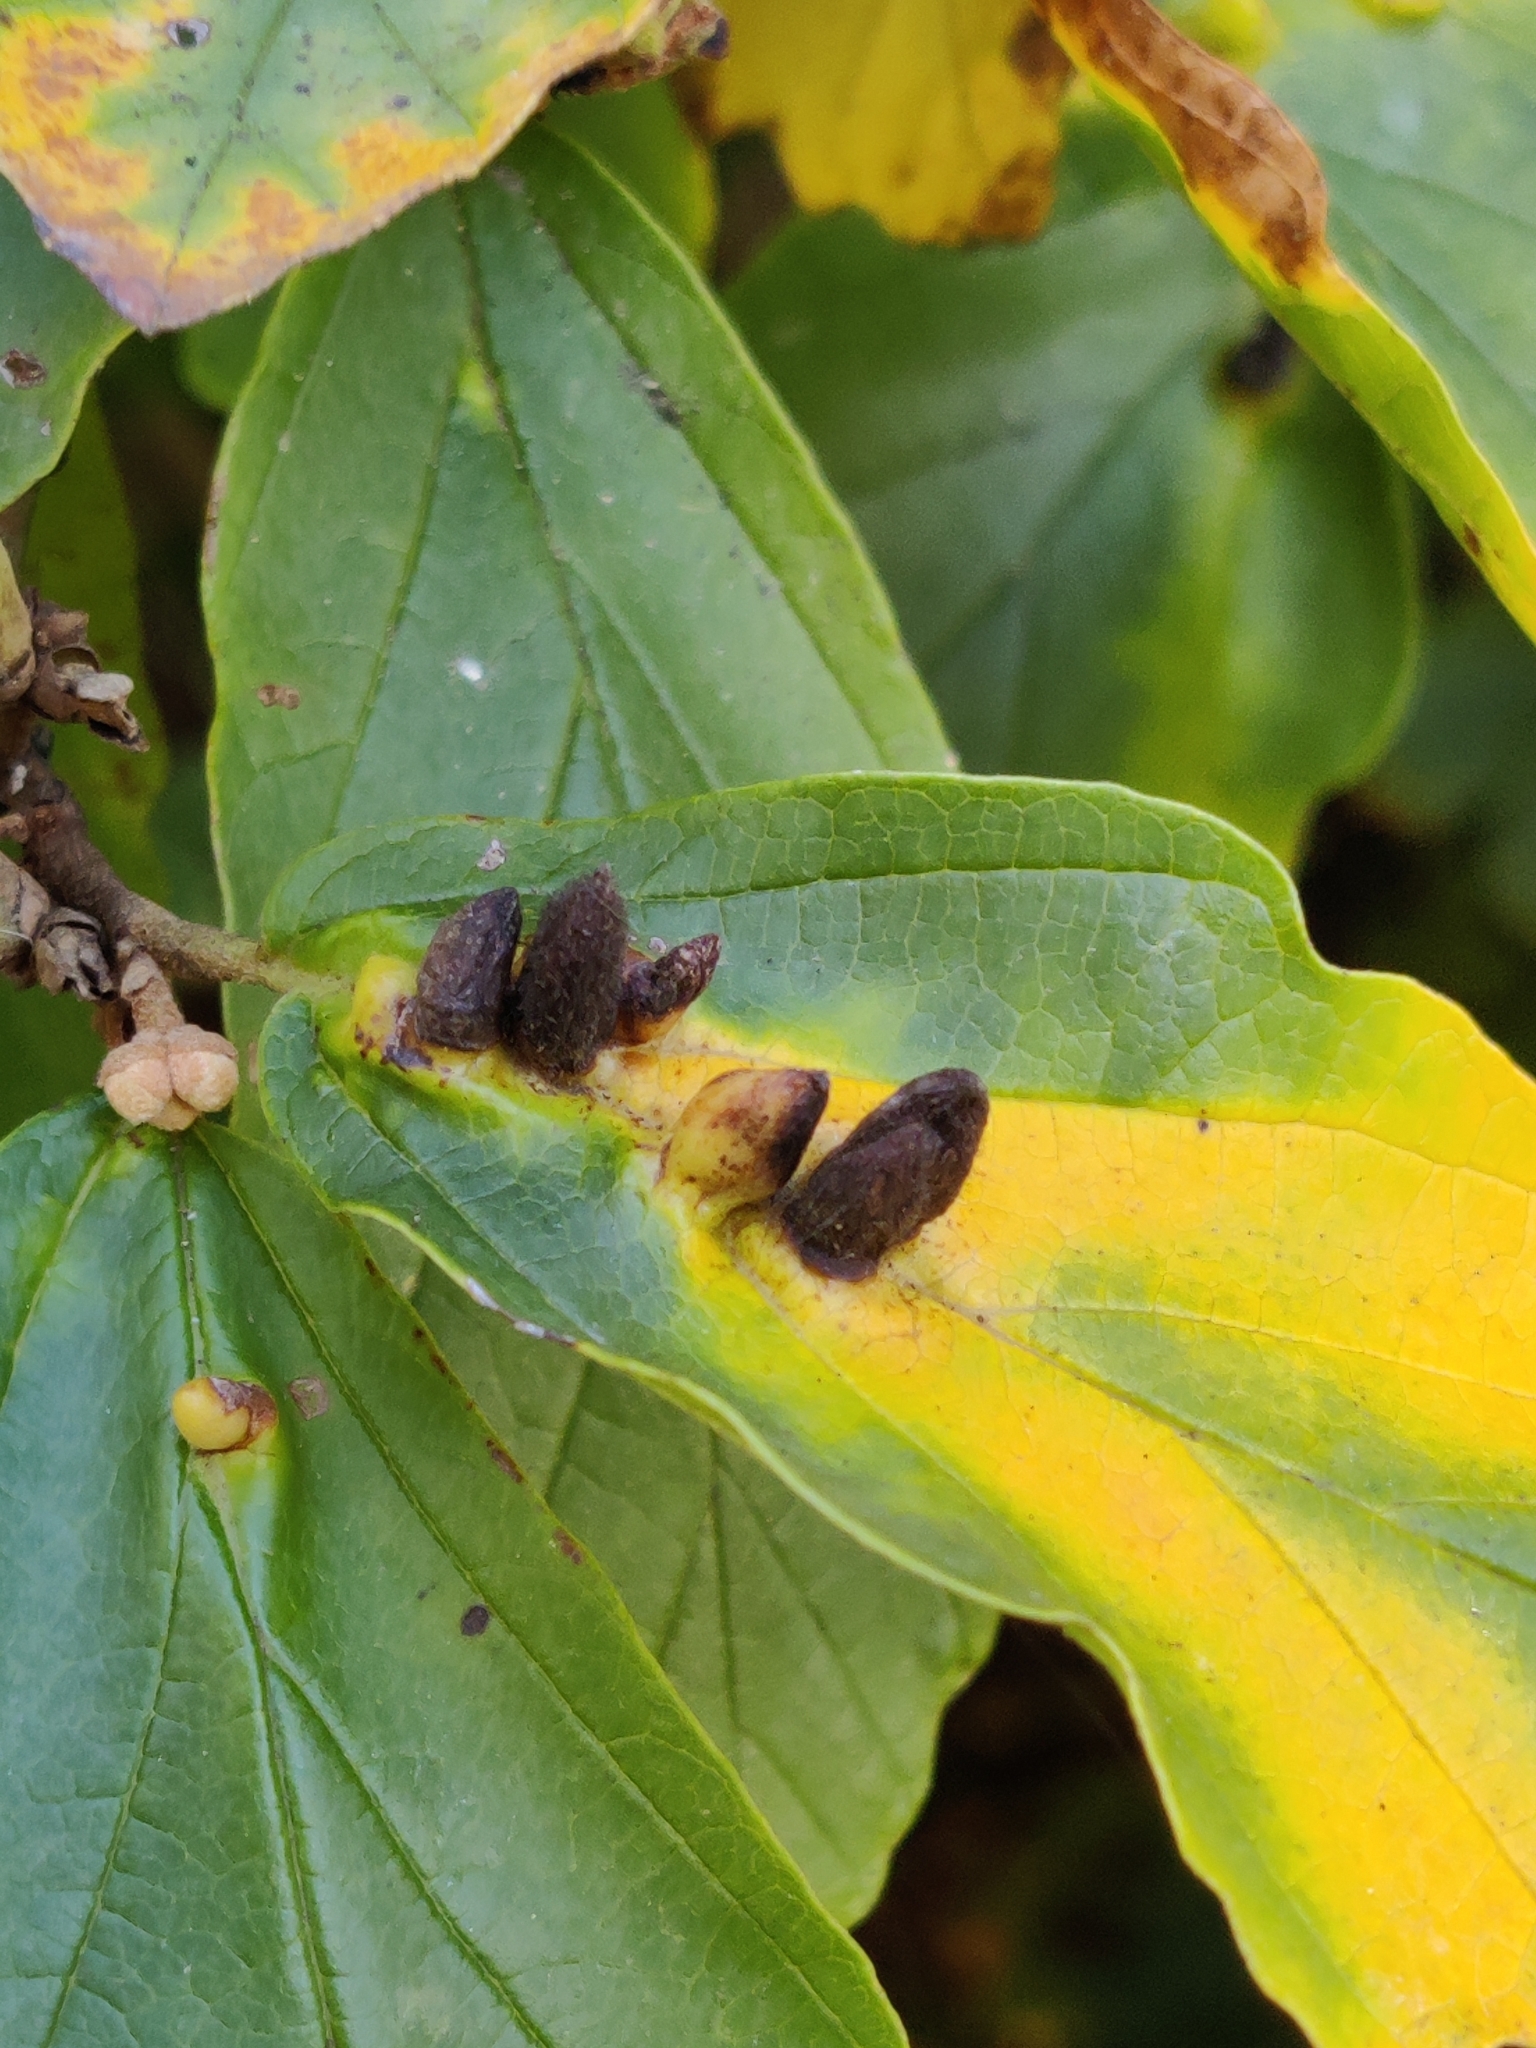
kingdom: Animalia
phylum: Arthropoda
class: Insecta
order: Hemiptera
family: Aphididae
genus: Hormaphis
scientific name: Hormaphis hamamelidis
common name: Witch-hazel cone gall aphid
